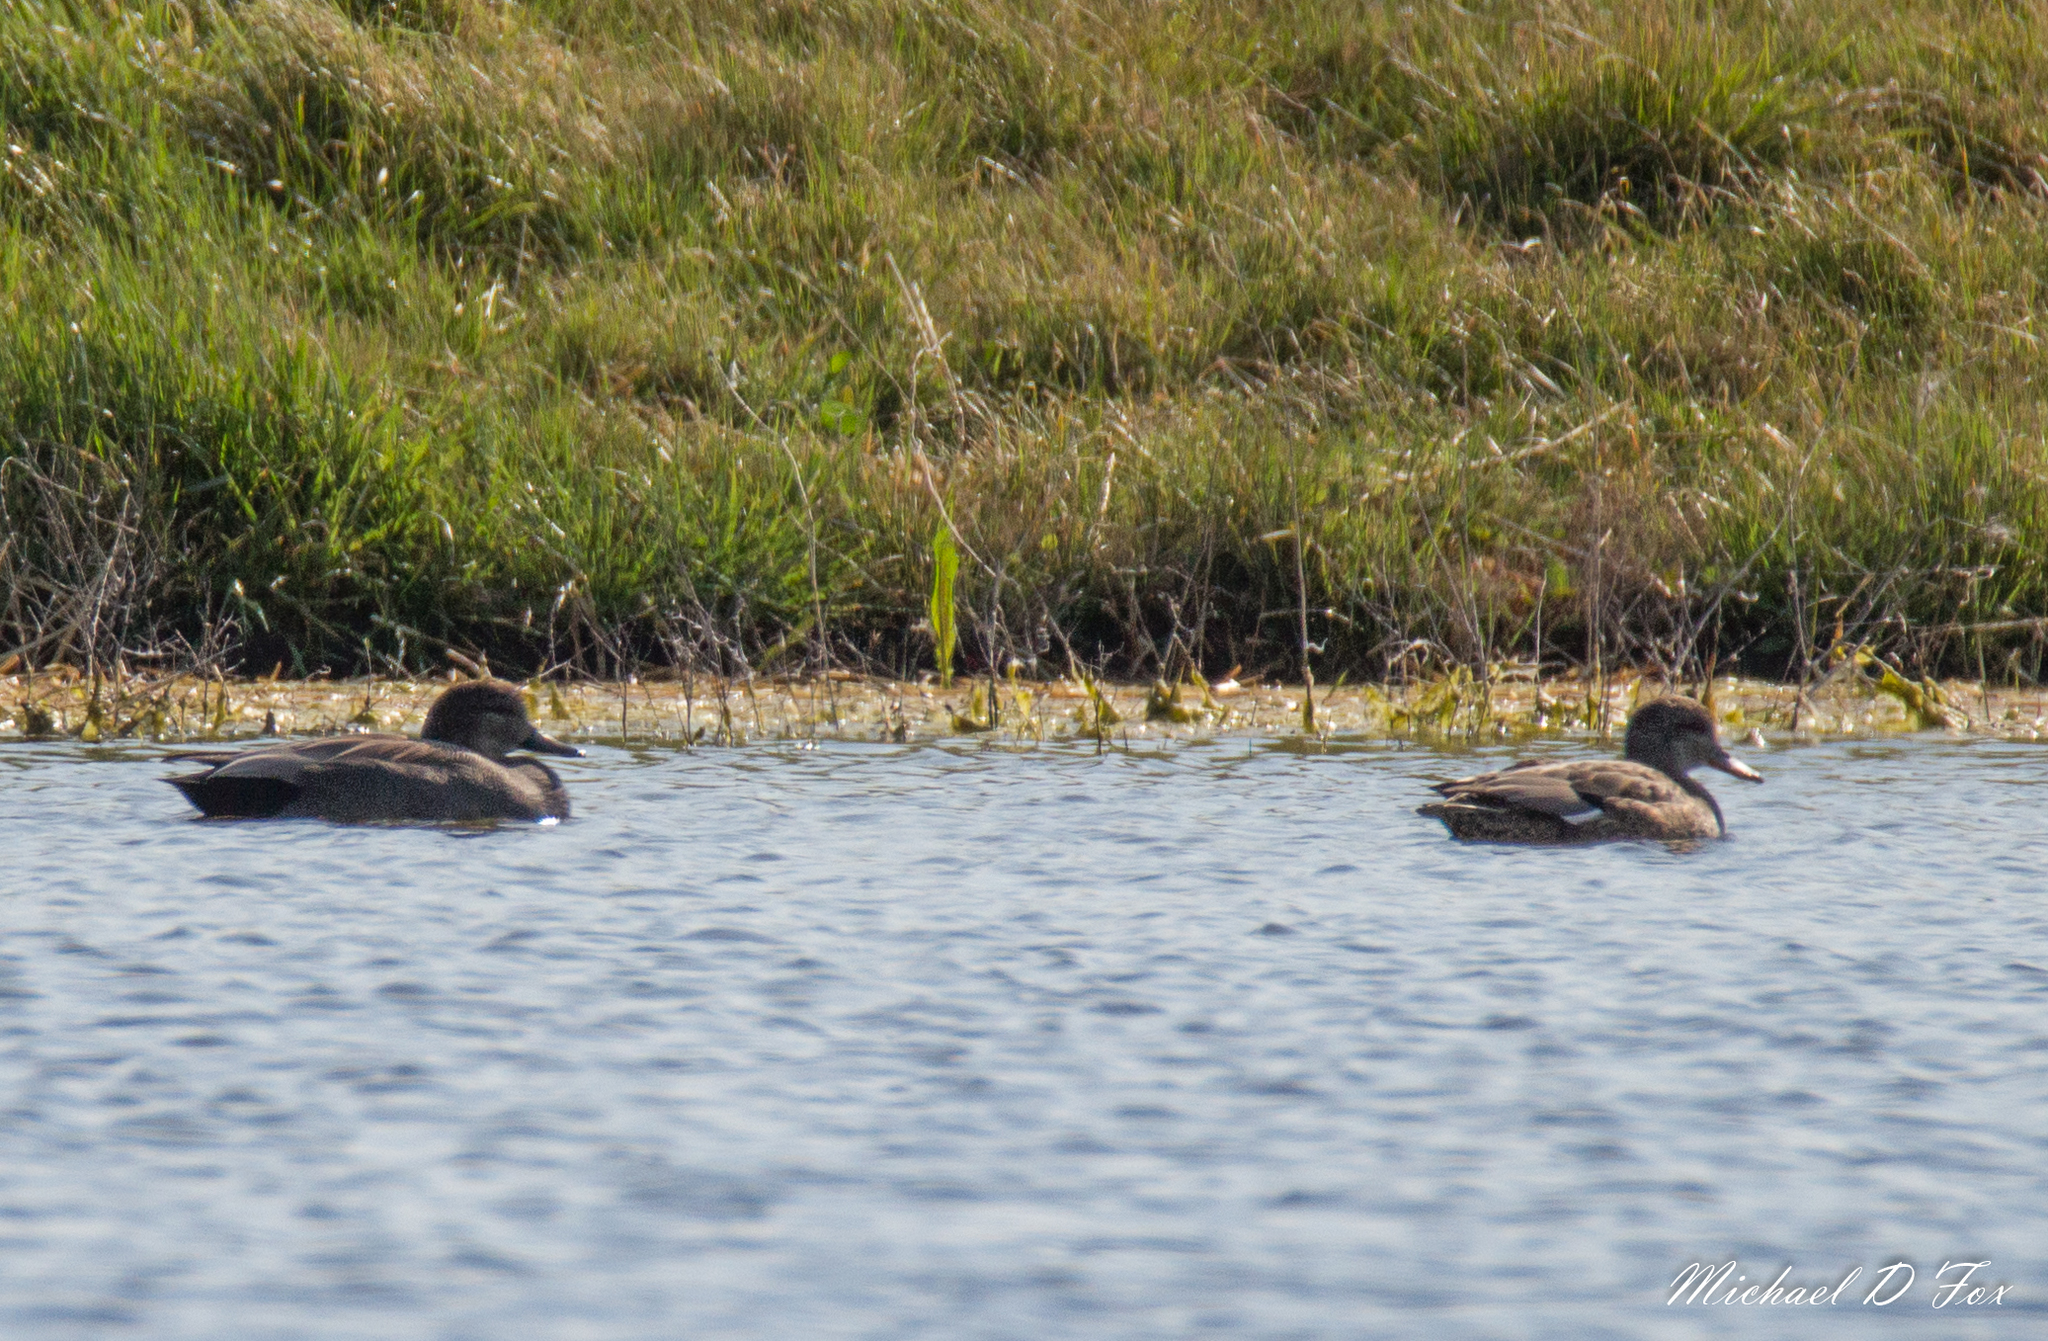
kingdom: Animalia
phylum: Chordata
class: Aves
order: Anseriformes
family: Anatidae
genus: Mareca
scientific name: Mareca strepera
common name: Gadwall
